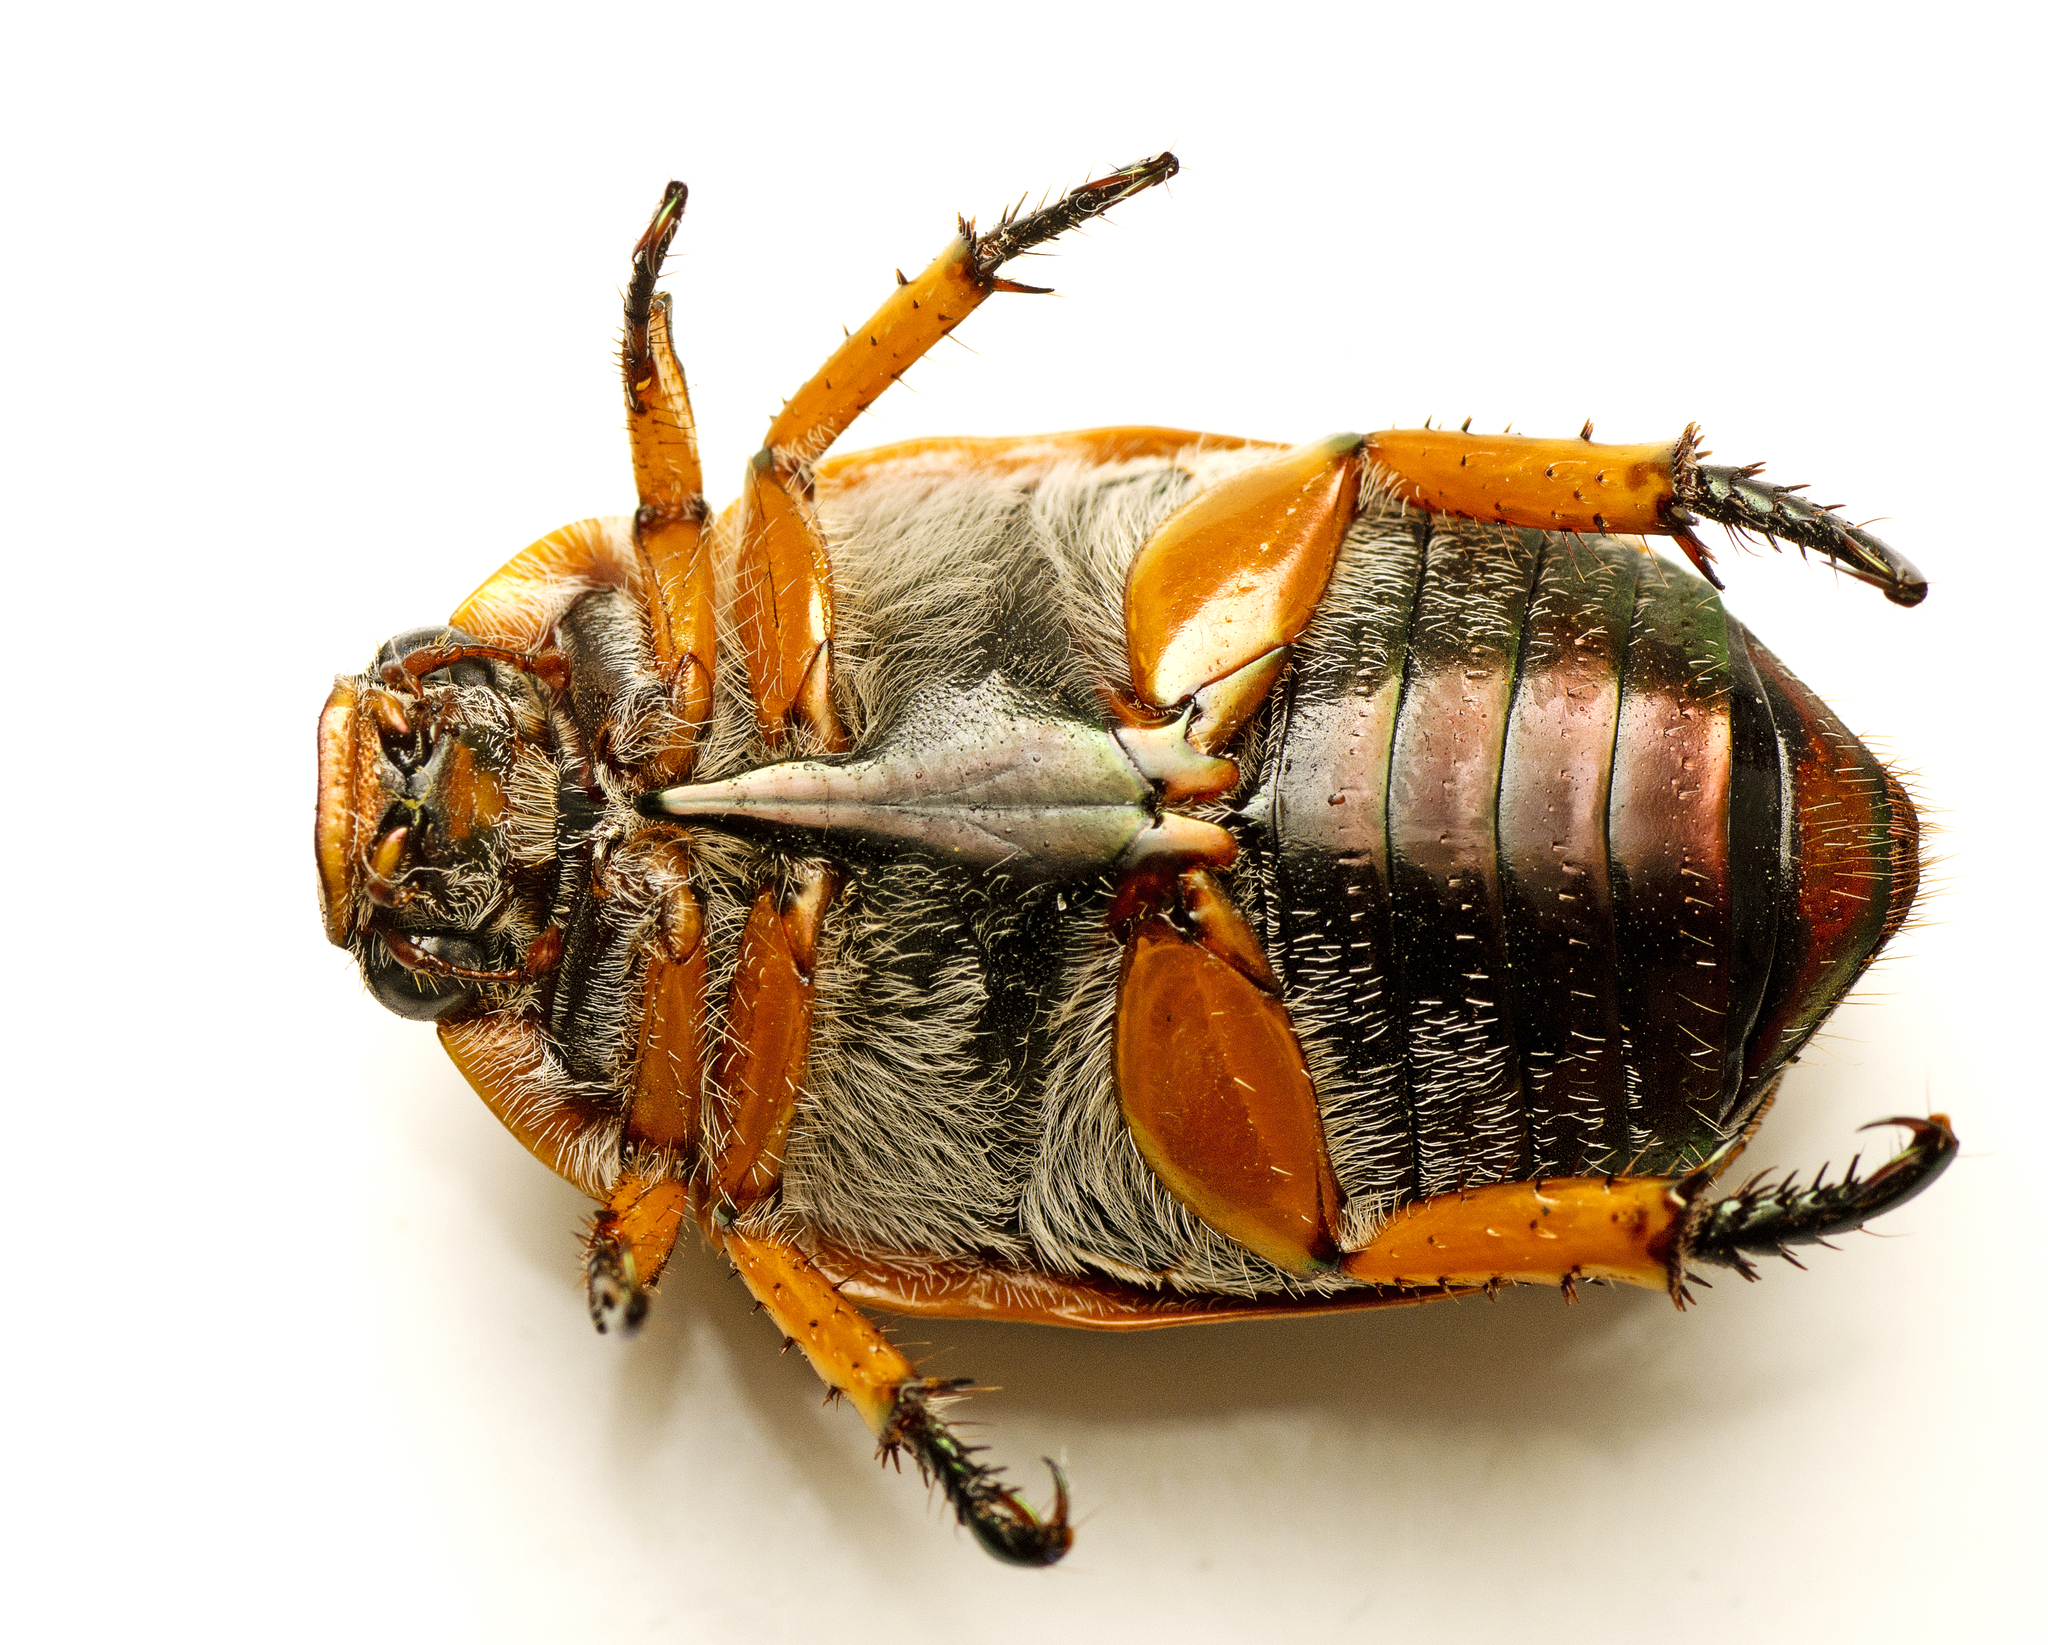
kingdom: Animalia
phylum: Arthropoda
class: Insecta
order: Coleoptera
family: Scarabaeidae
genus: Anoplognathus
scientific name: Anoplognathus porosus
